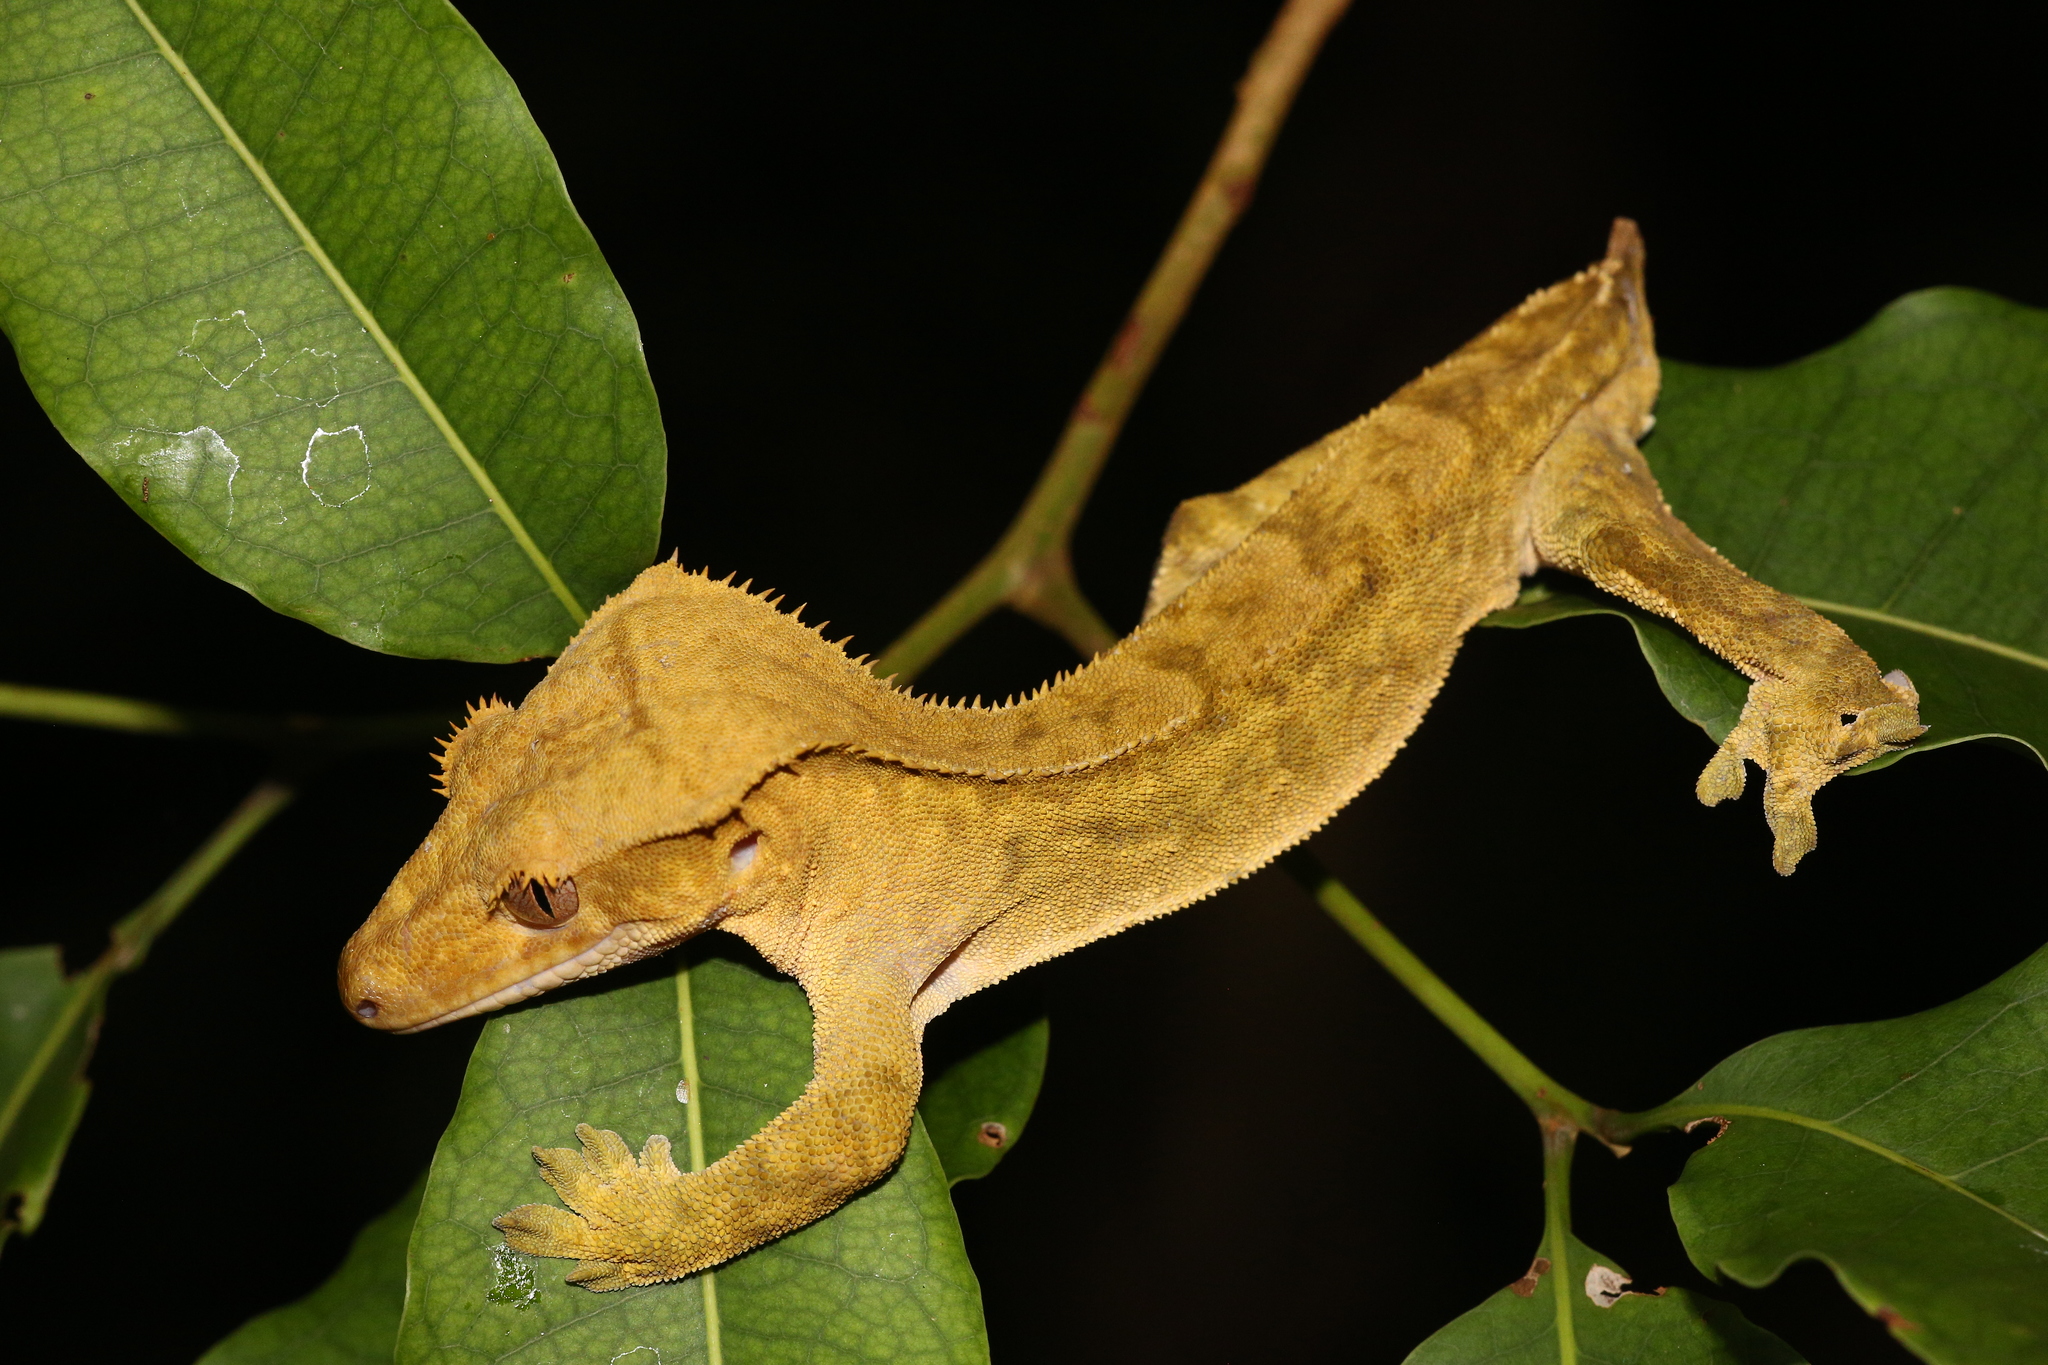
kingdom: Animalia
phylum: Chordata
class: Squamata
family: Diplodactylidae
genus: Correlophus
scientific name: Correlophus ciliatus
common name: Crested gecko
